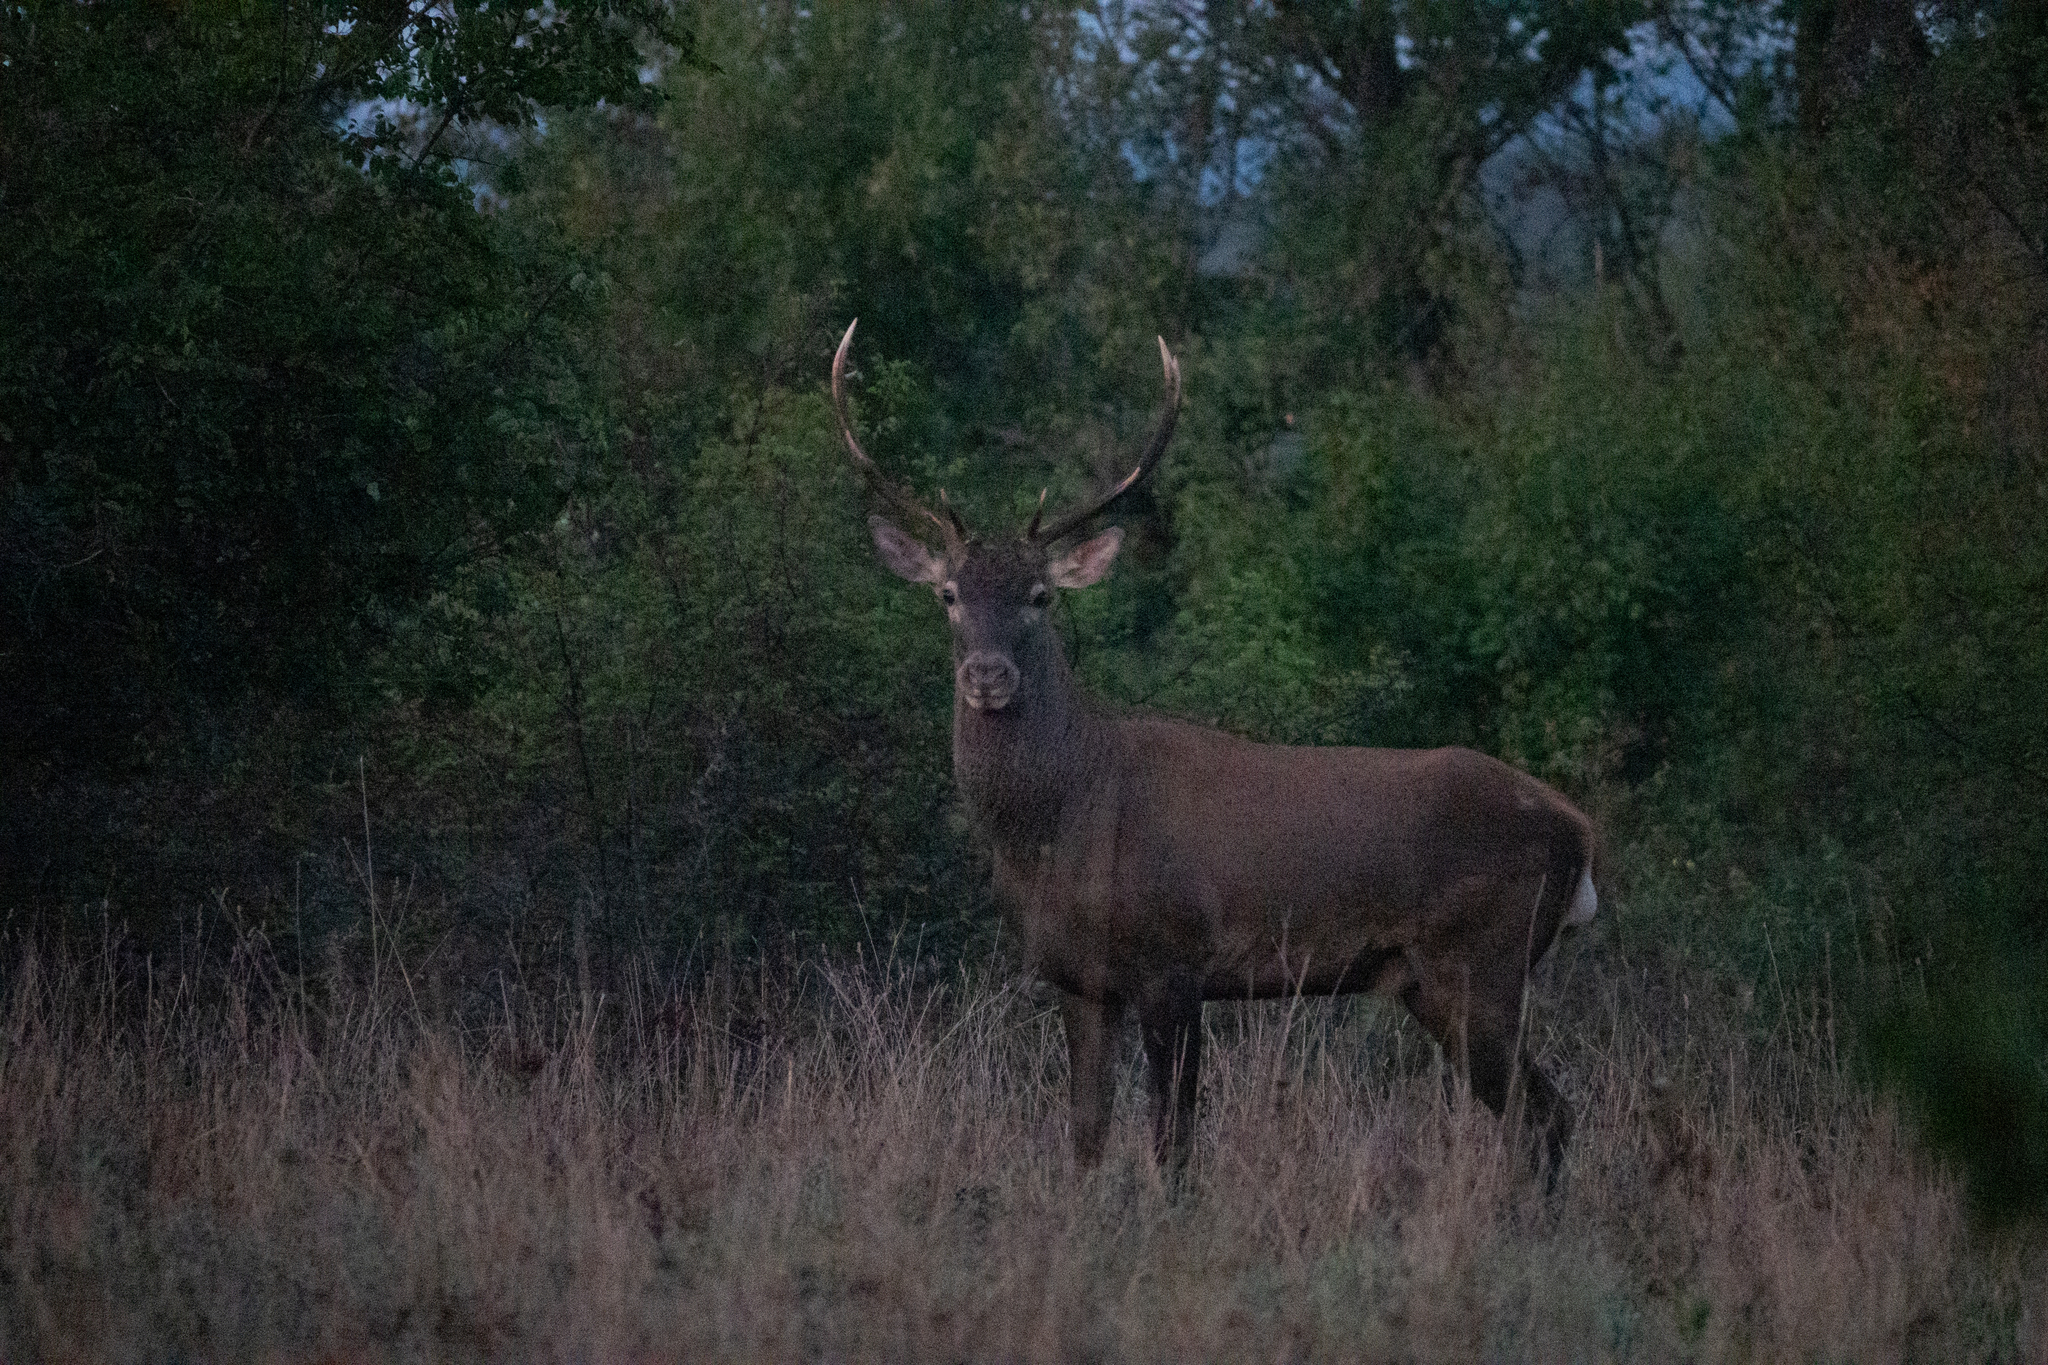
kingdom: Animalia
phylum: Chordata
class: Mammalia
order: Artiodactyla
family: Cervidae
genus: Cervus
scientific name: Cervus elaphus
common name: Red deer
